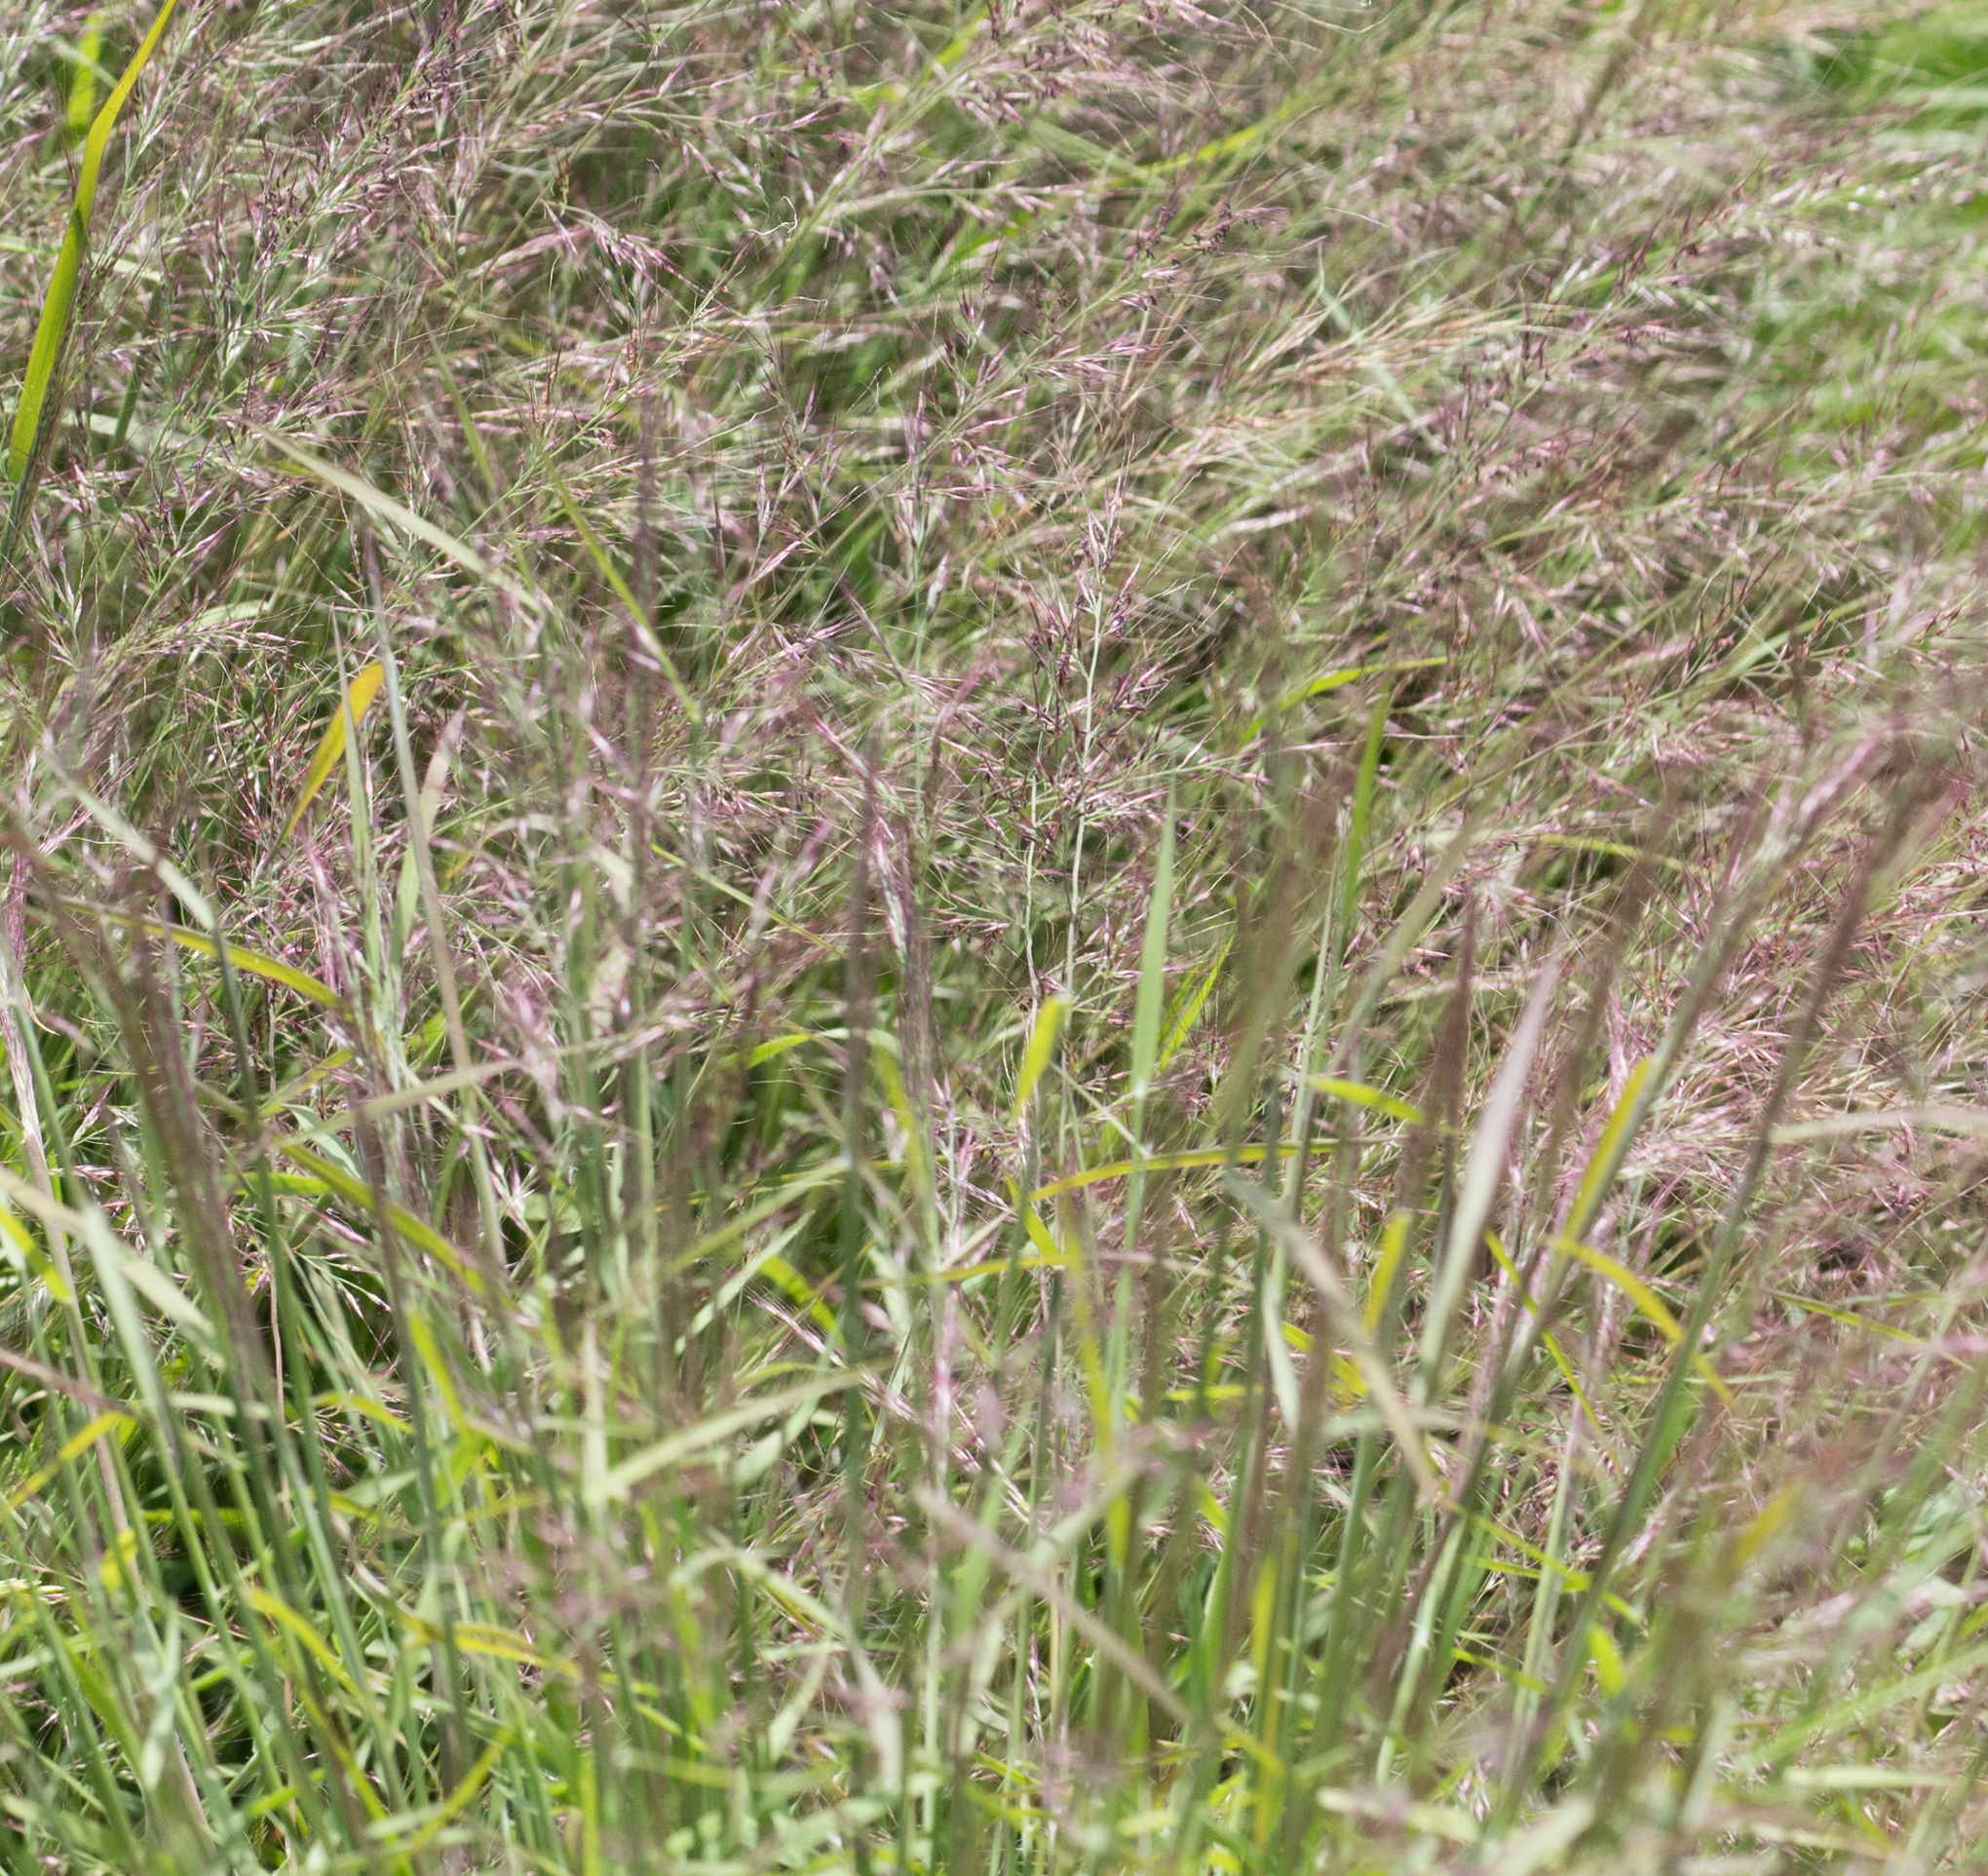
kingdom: Plantae
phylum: Tracheophyta
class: Liliopsida
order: Poales
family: Poaceae
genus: Muhlenbergia
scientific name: Muhlenbergia microsperma
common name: Littleseed muhly
